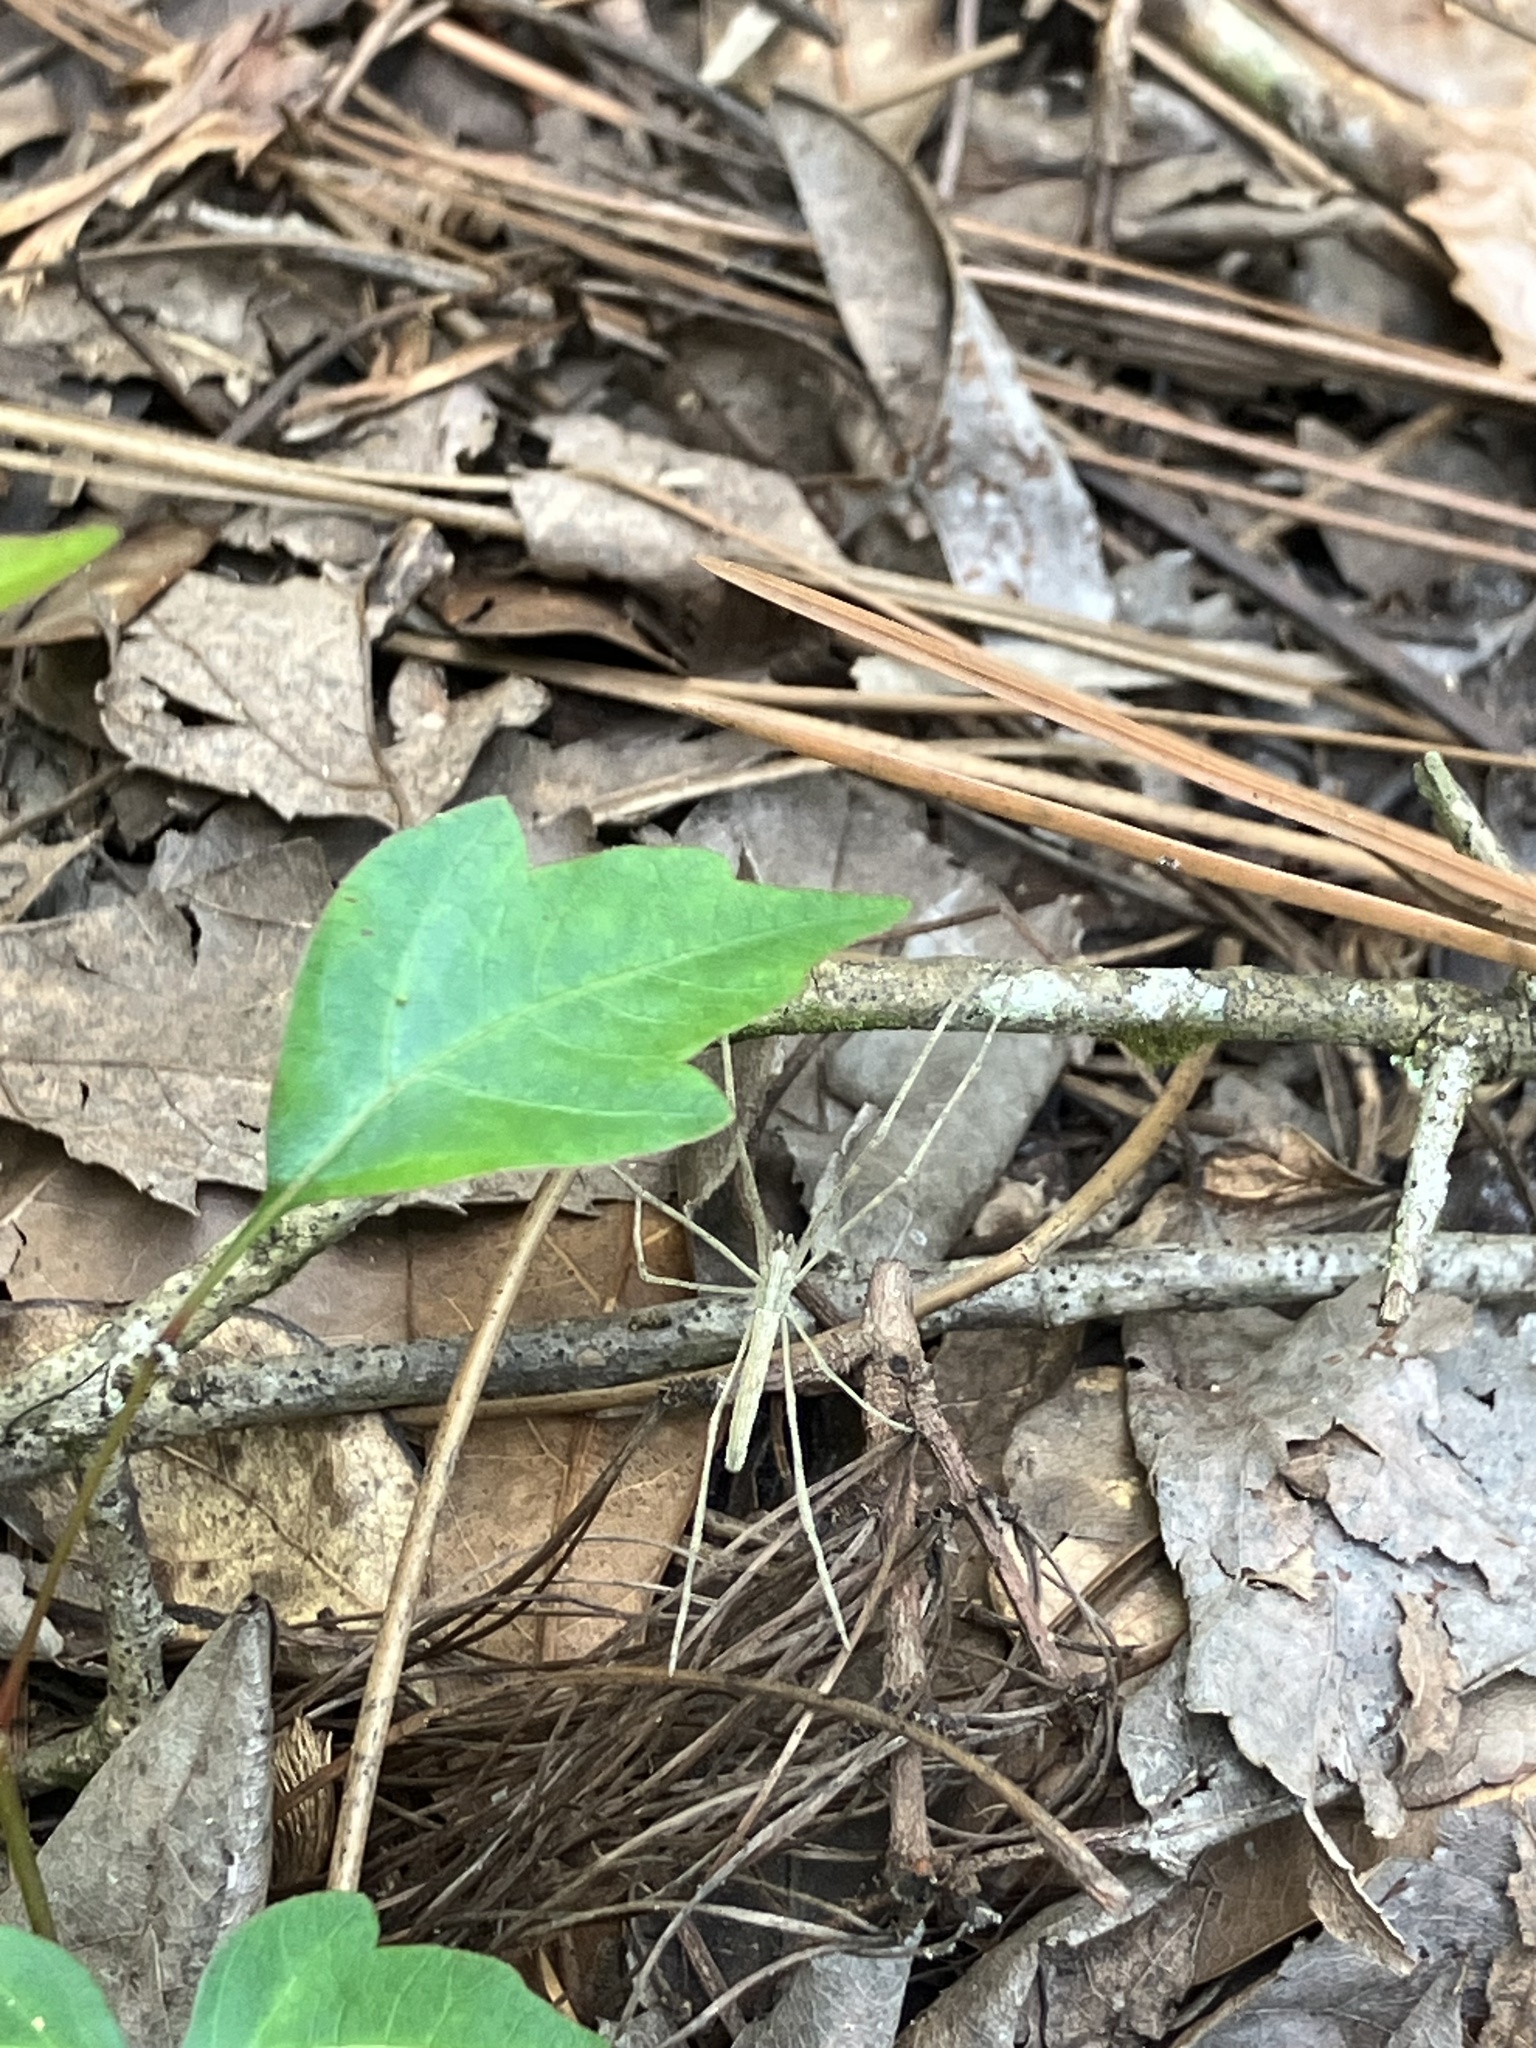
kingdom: Animalia
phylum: Arthropoda
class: Arachnida
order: Araneae
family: Deinopidae
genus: Deinopis
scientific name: Deinopis spinosa
